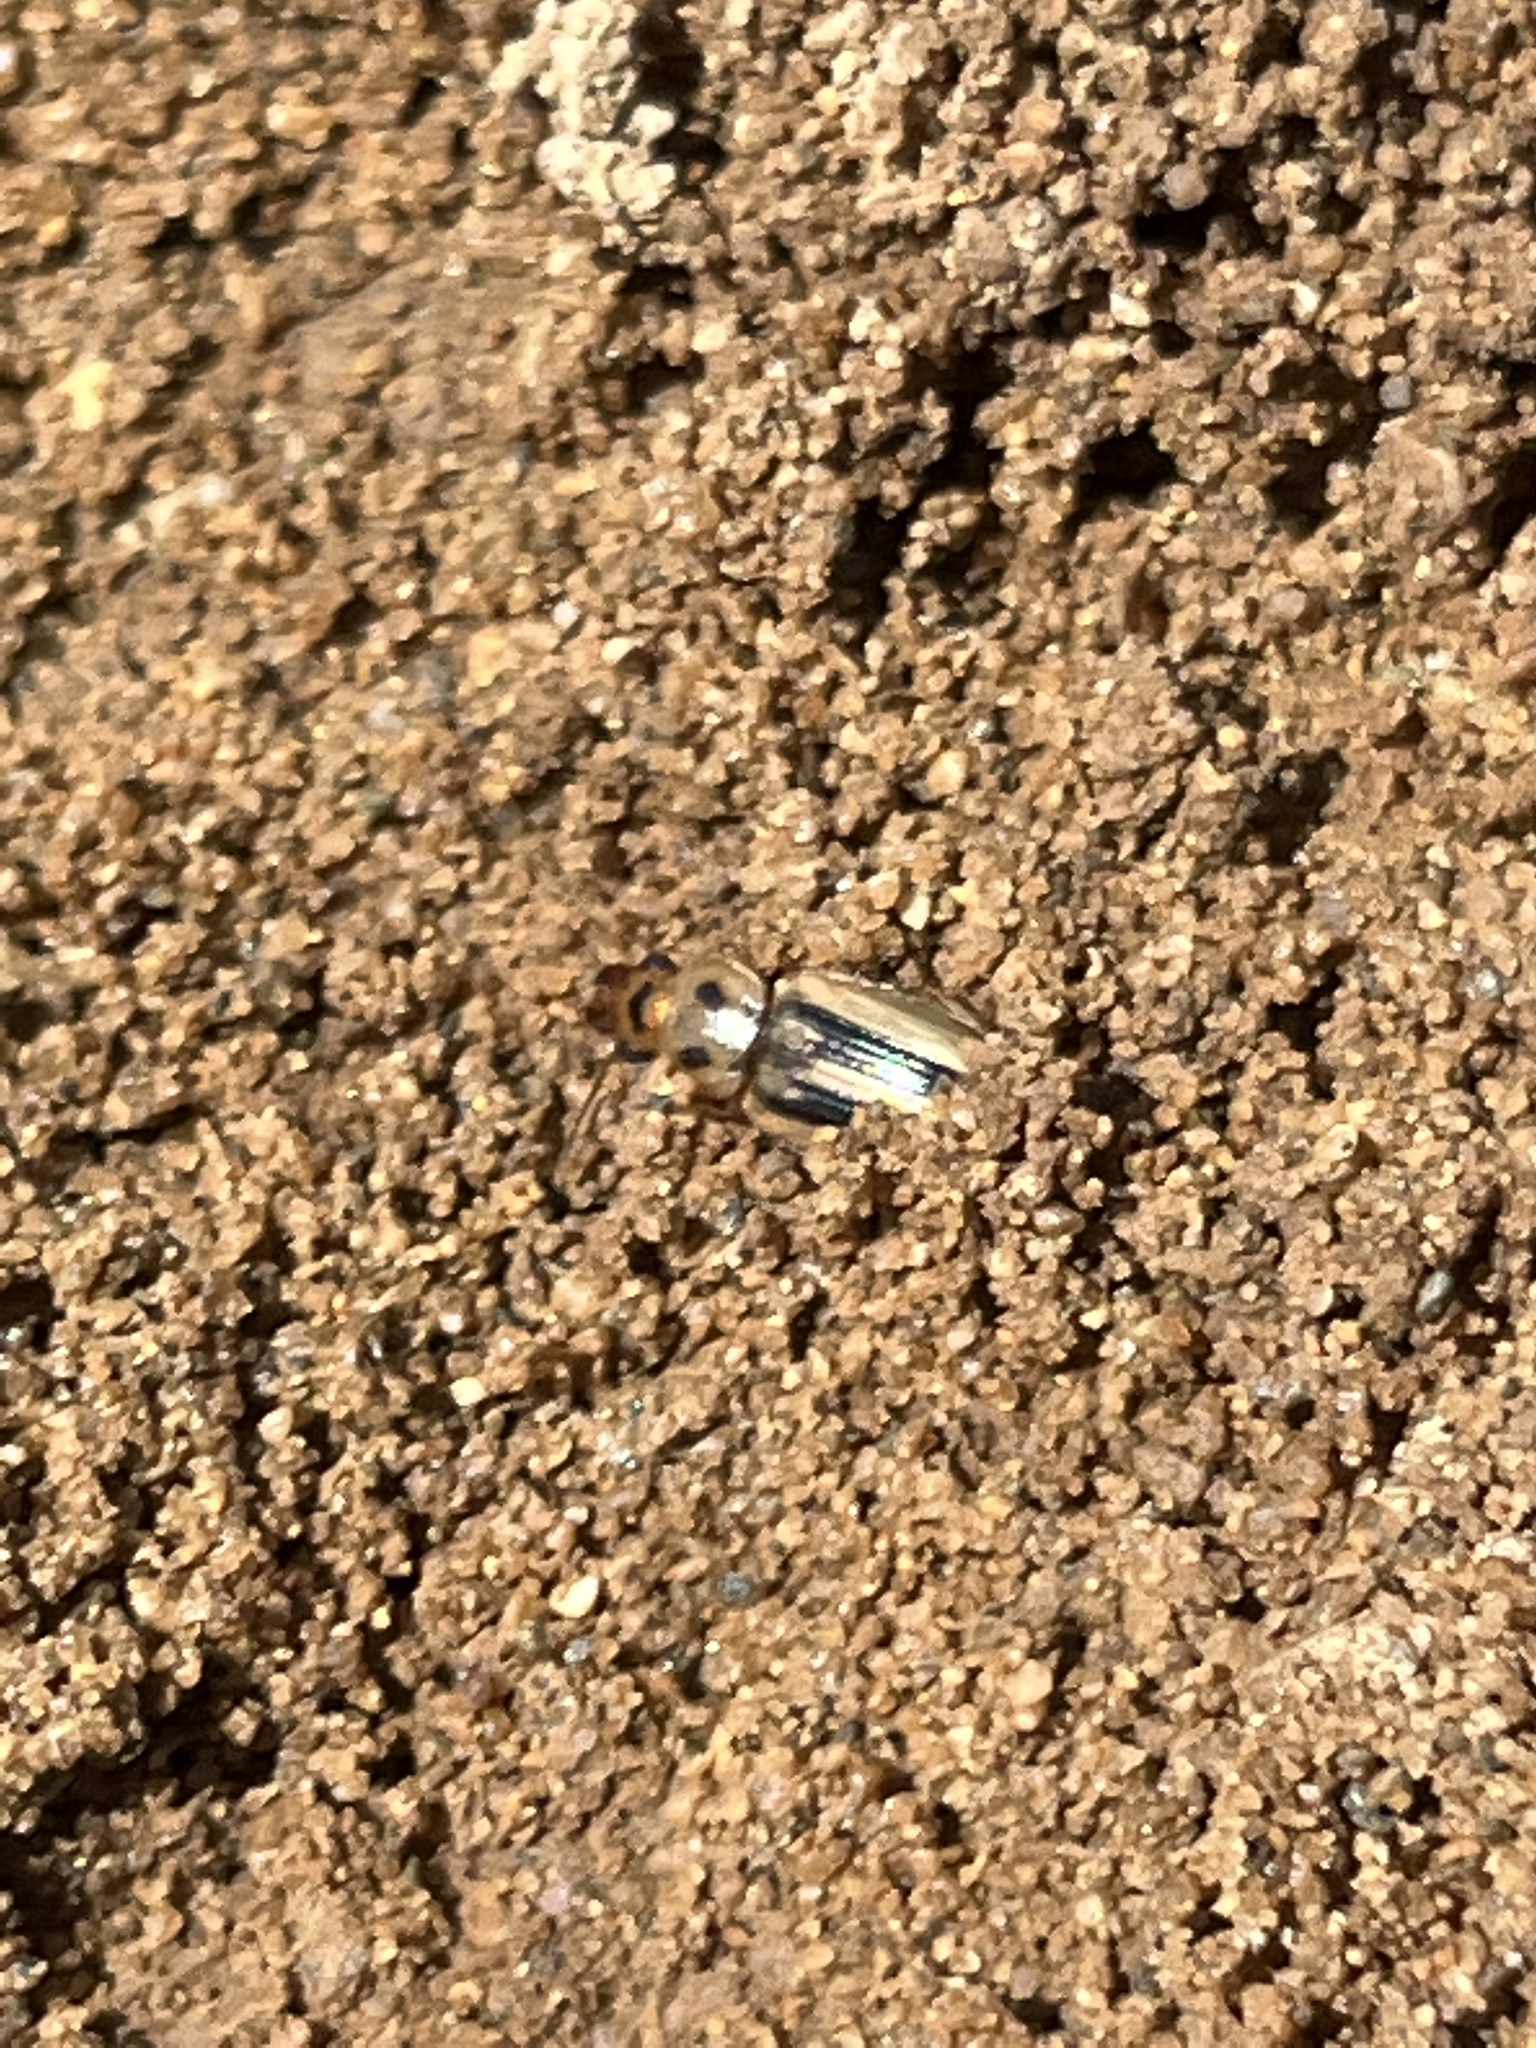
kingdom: Animalia
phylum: Arthropoda
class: Insecta
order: Coleoptera
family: Carabidae
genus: Stenolophus
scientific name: Stenolophus lineola
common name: Lined stenolophus
